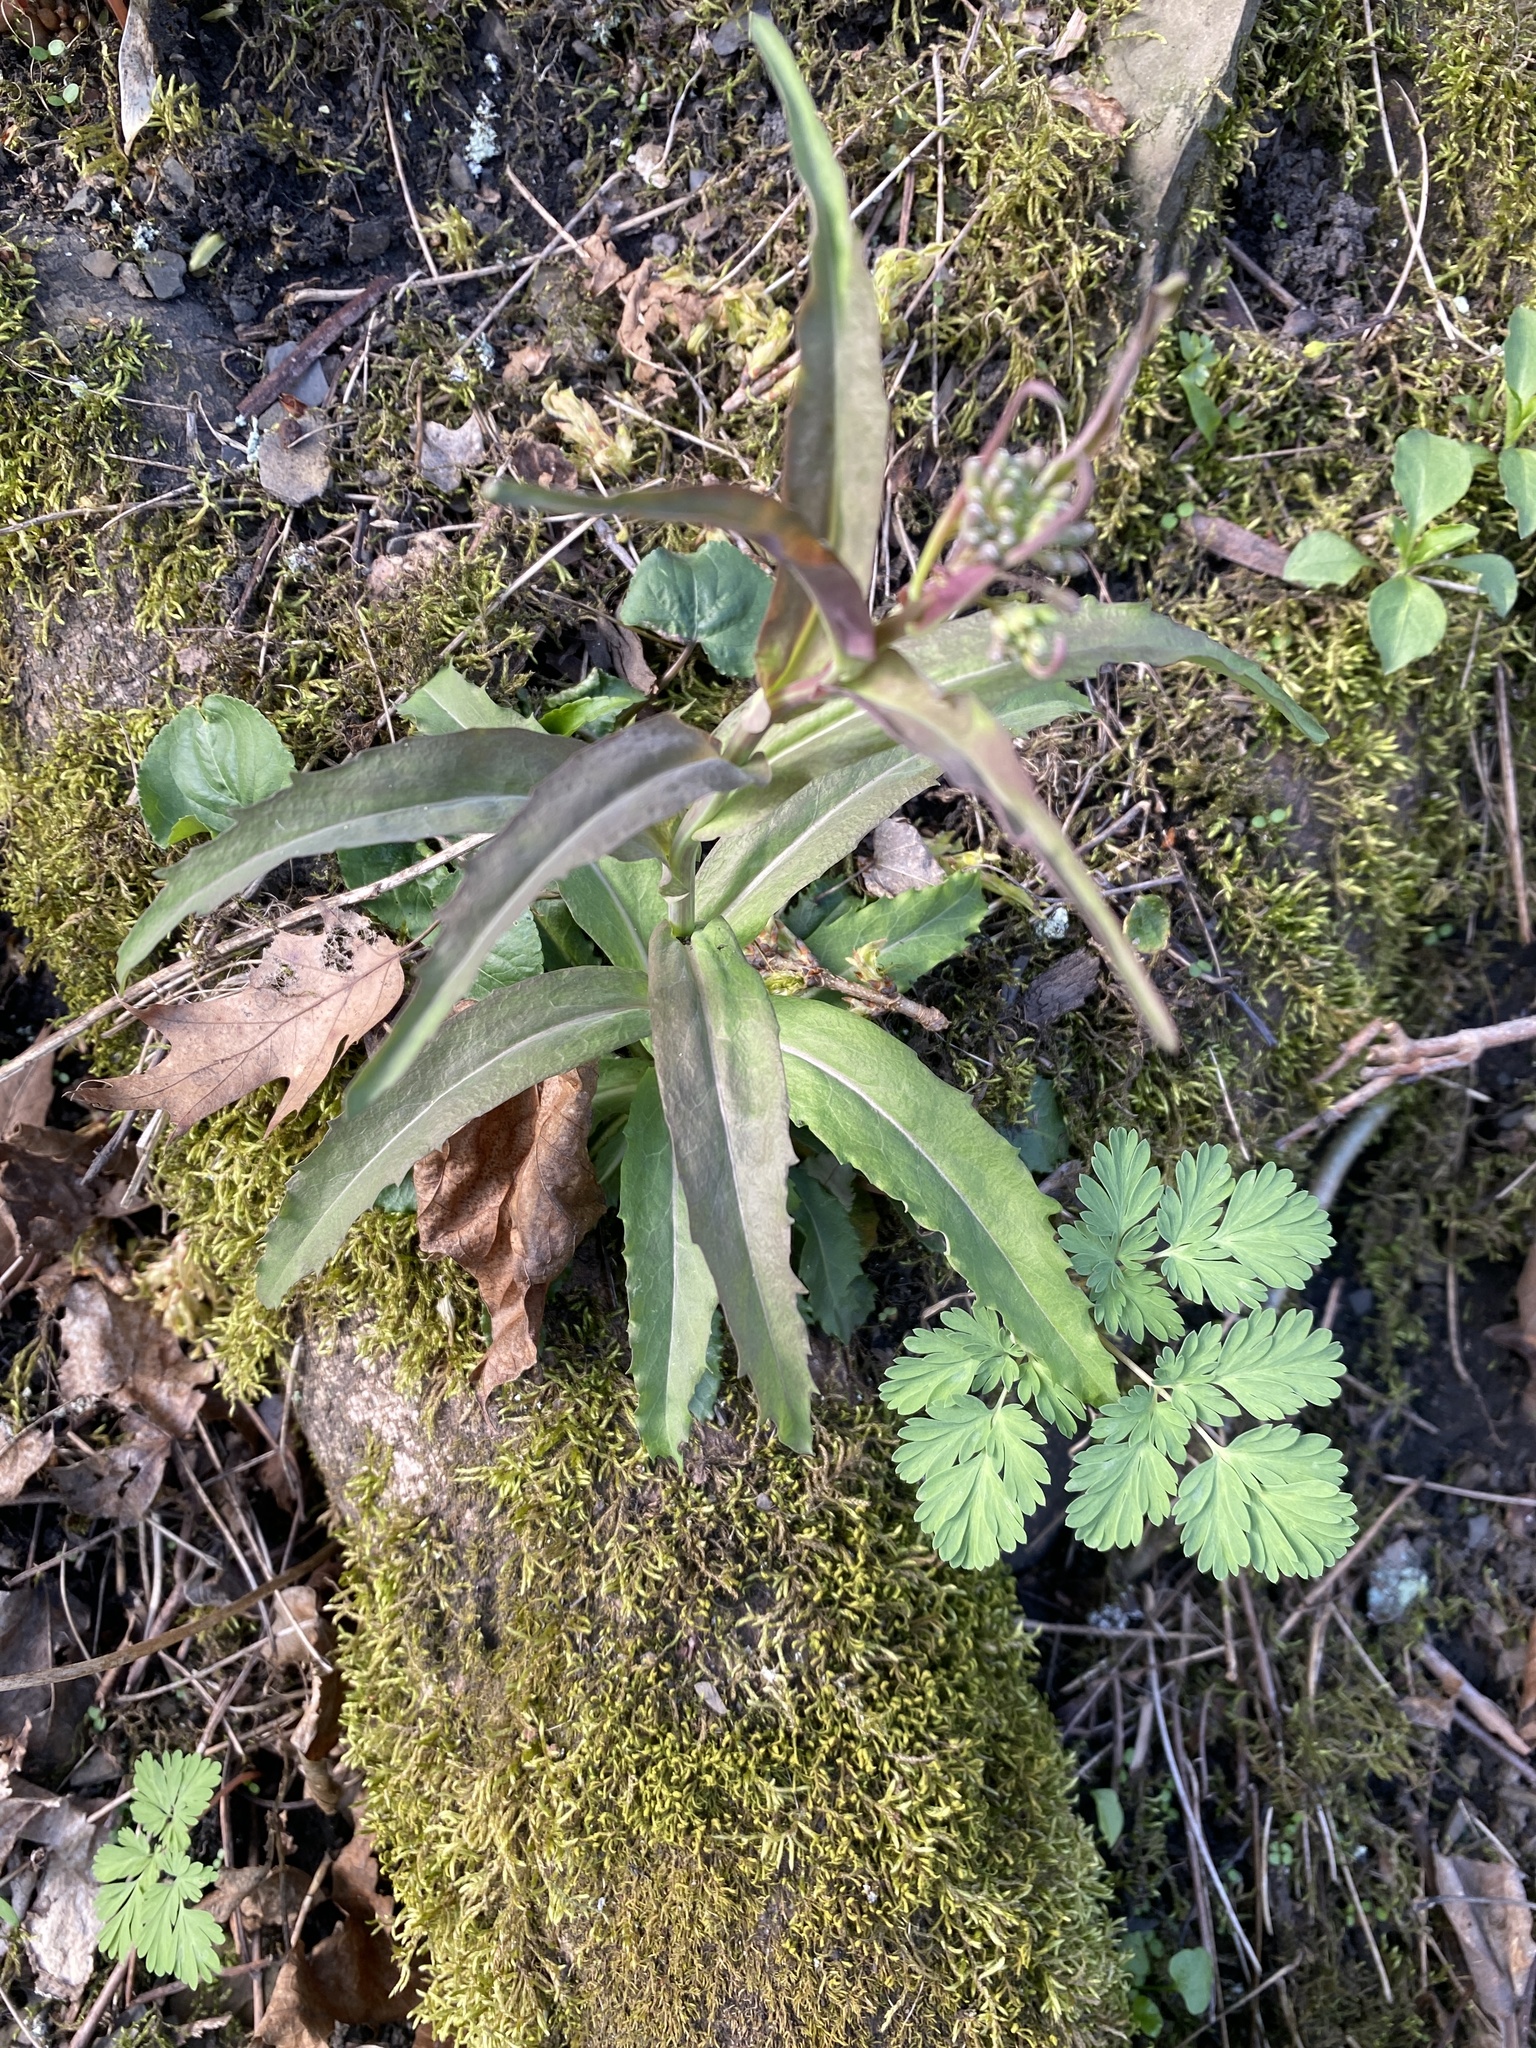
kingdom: Plantae
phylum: Tracheophyta
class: Magnoliopsida
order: Brassicales
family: Brassicaceae
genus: Borodinia
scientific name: Borodinia laevigata
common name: Smooth rockcress
